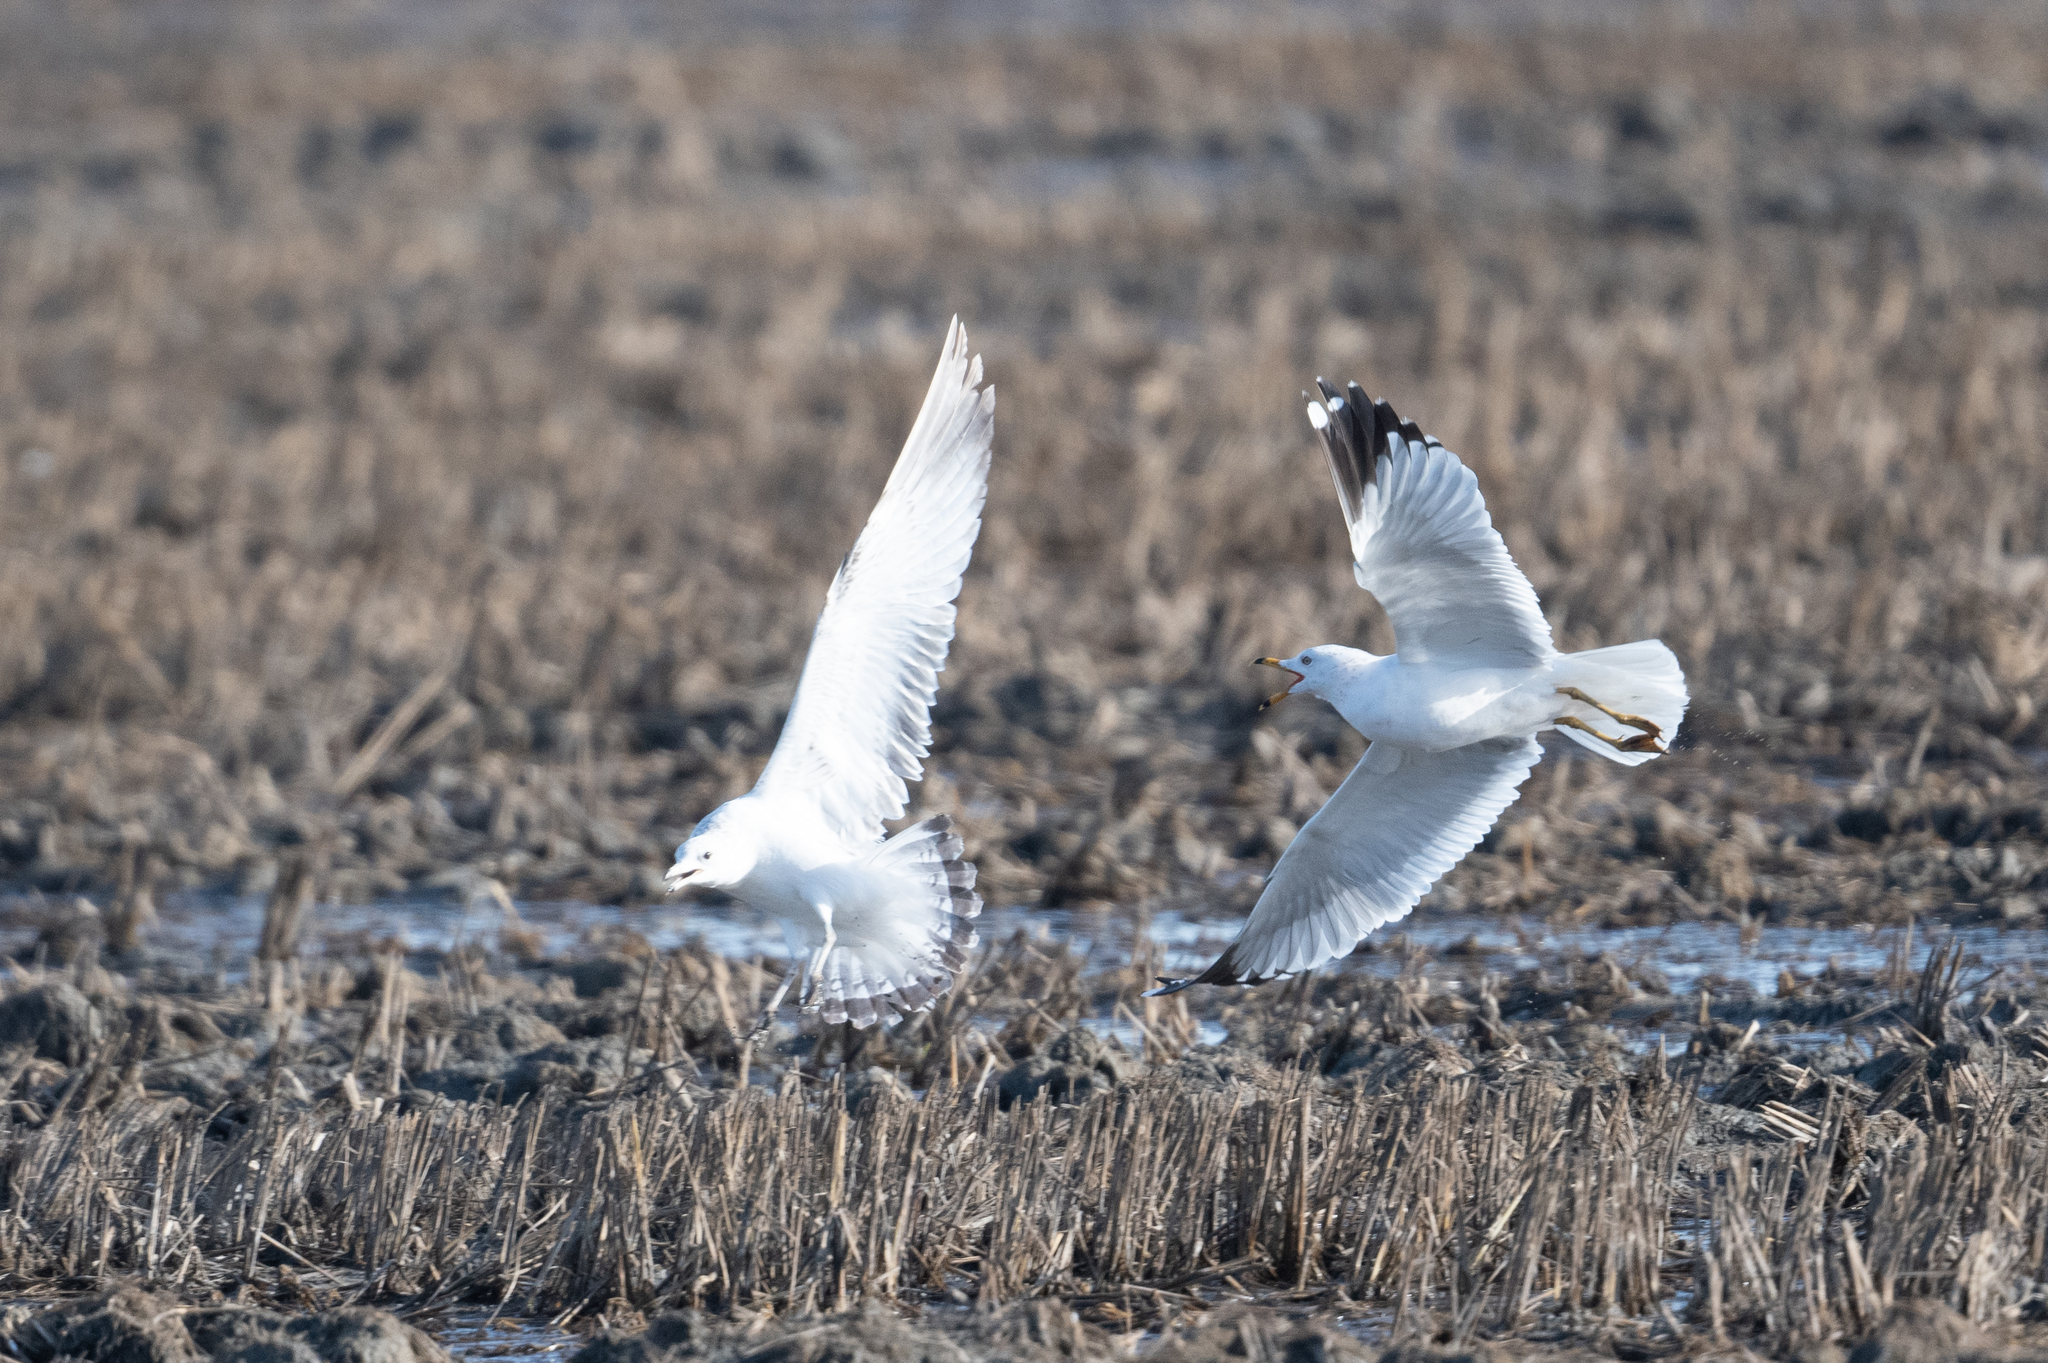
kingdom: Animalia
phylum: Chordata
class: Aves
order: Charadriiformes
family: Laridae
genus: Larus
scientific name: Larus delawarensis
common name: Ring-billed gull
